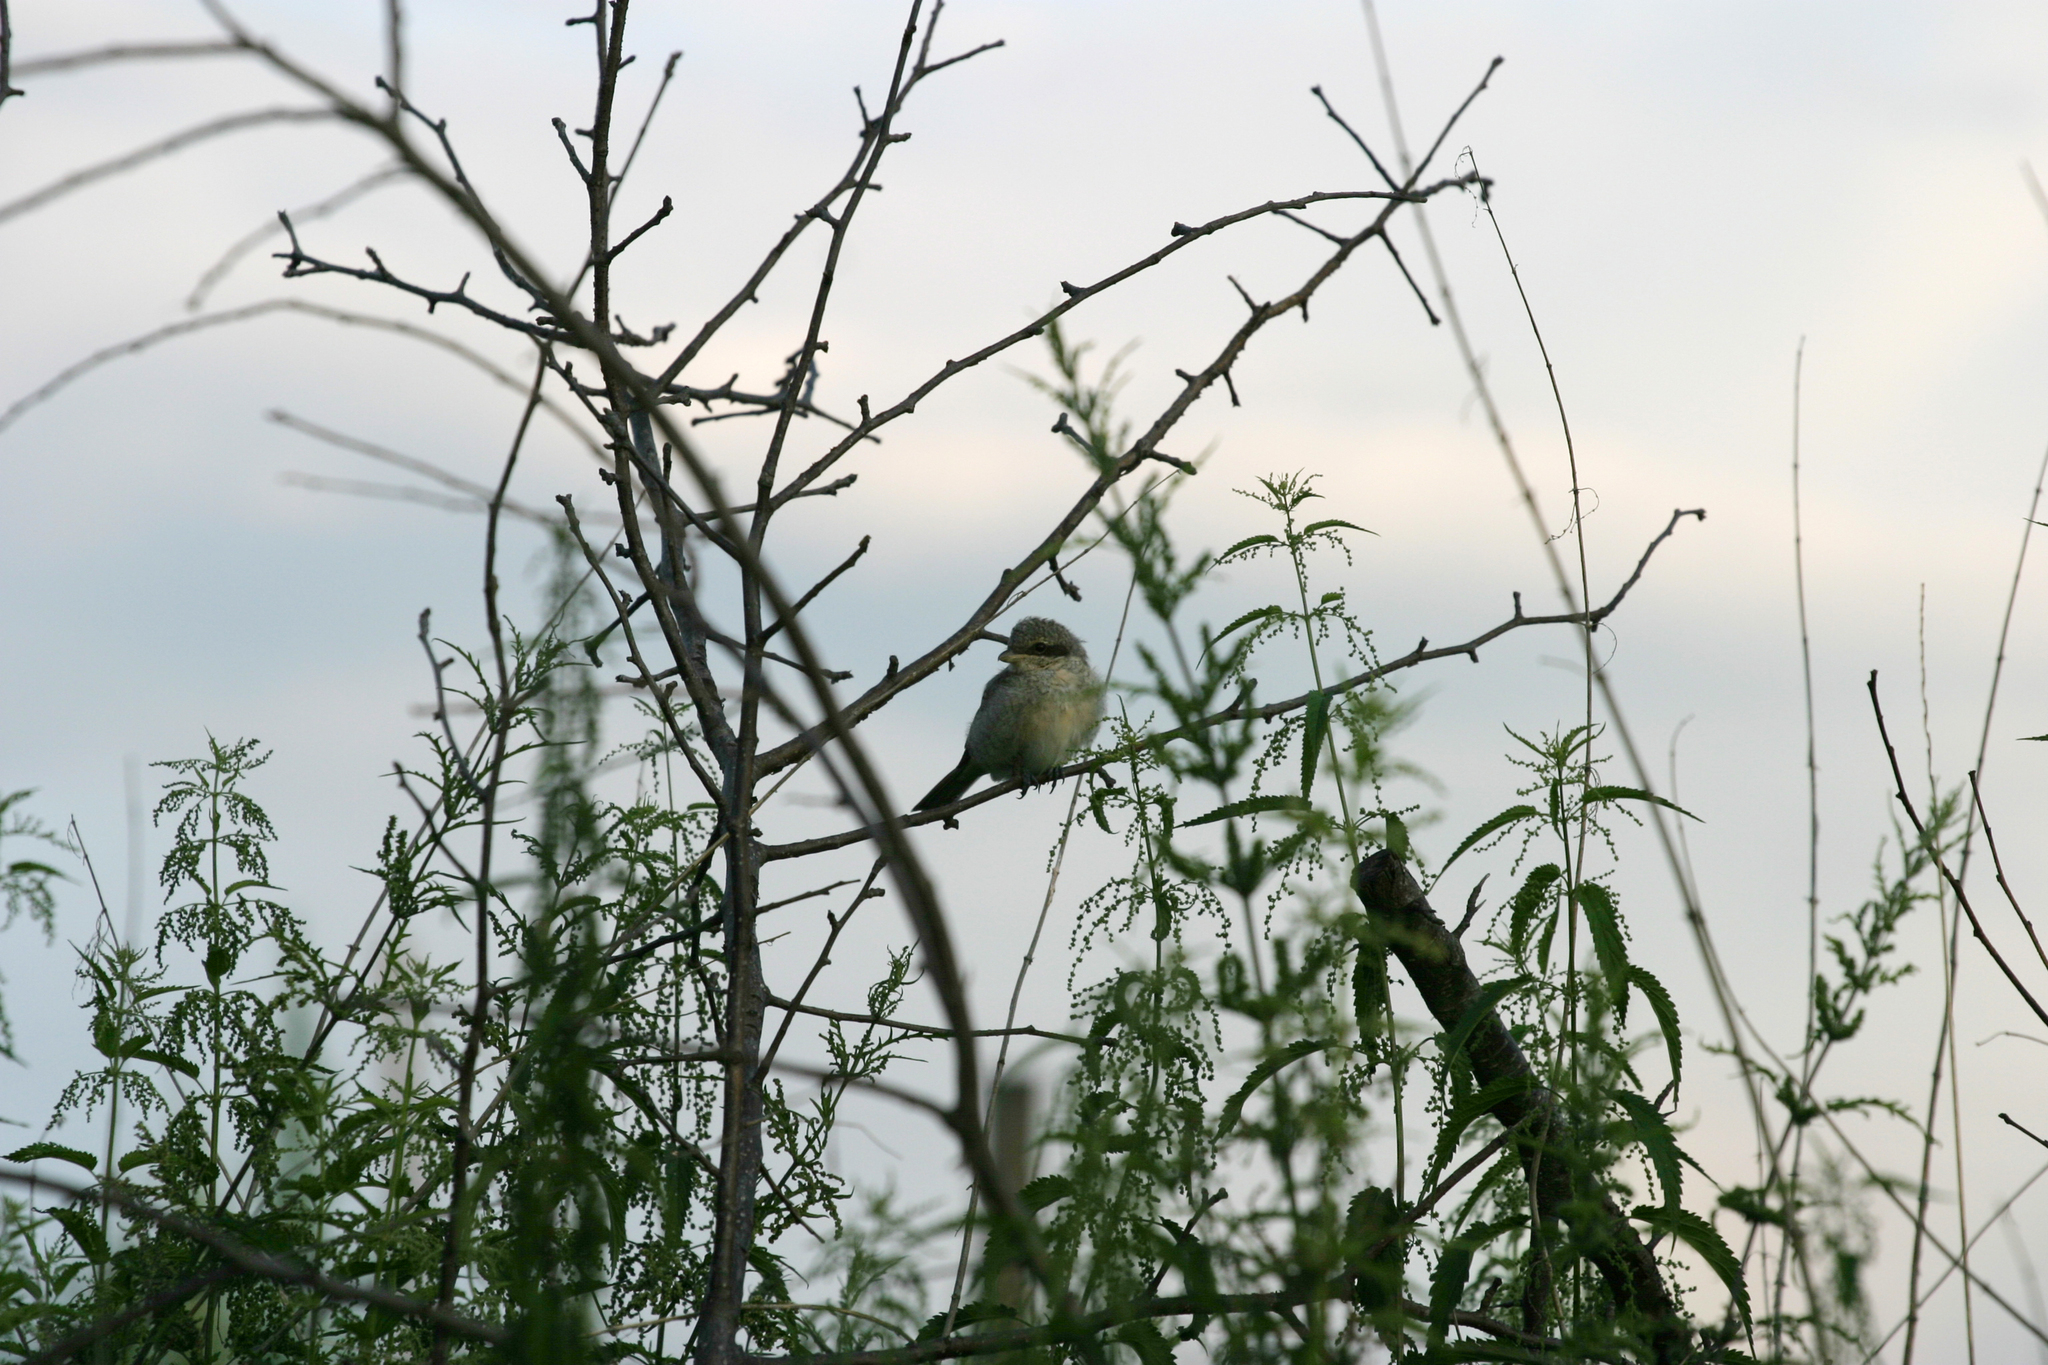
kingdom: Plantae
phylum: Tracheophyta
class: Magnoliopsida
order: Rosales
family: Urticaceae
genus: Urtica
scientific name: Urtica cannabina
